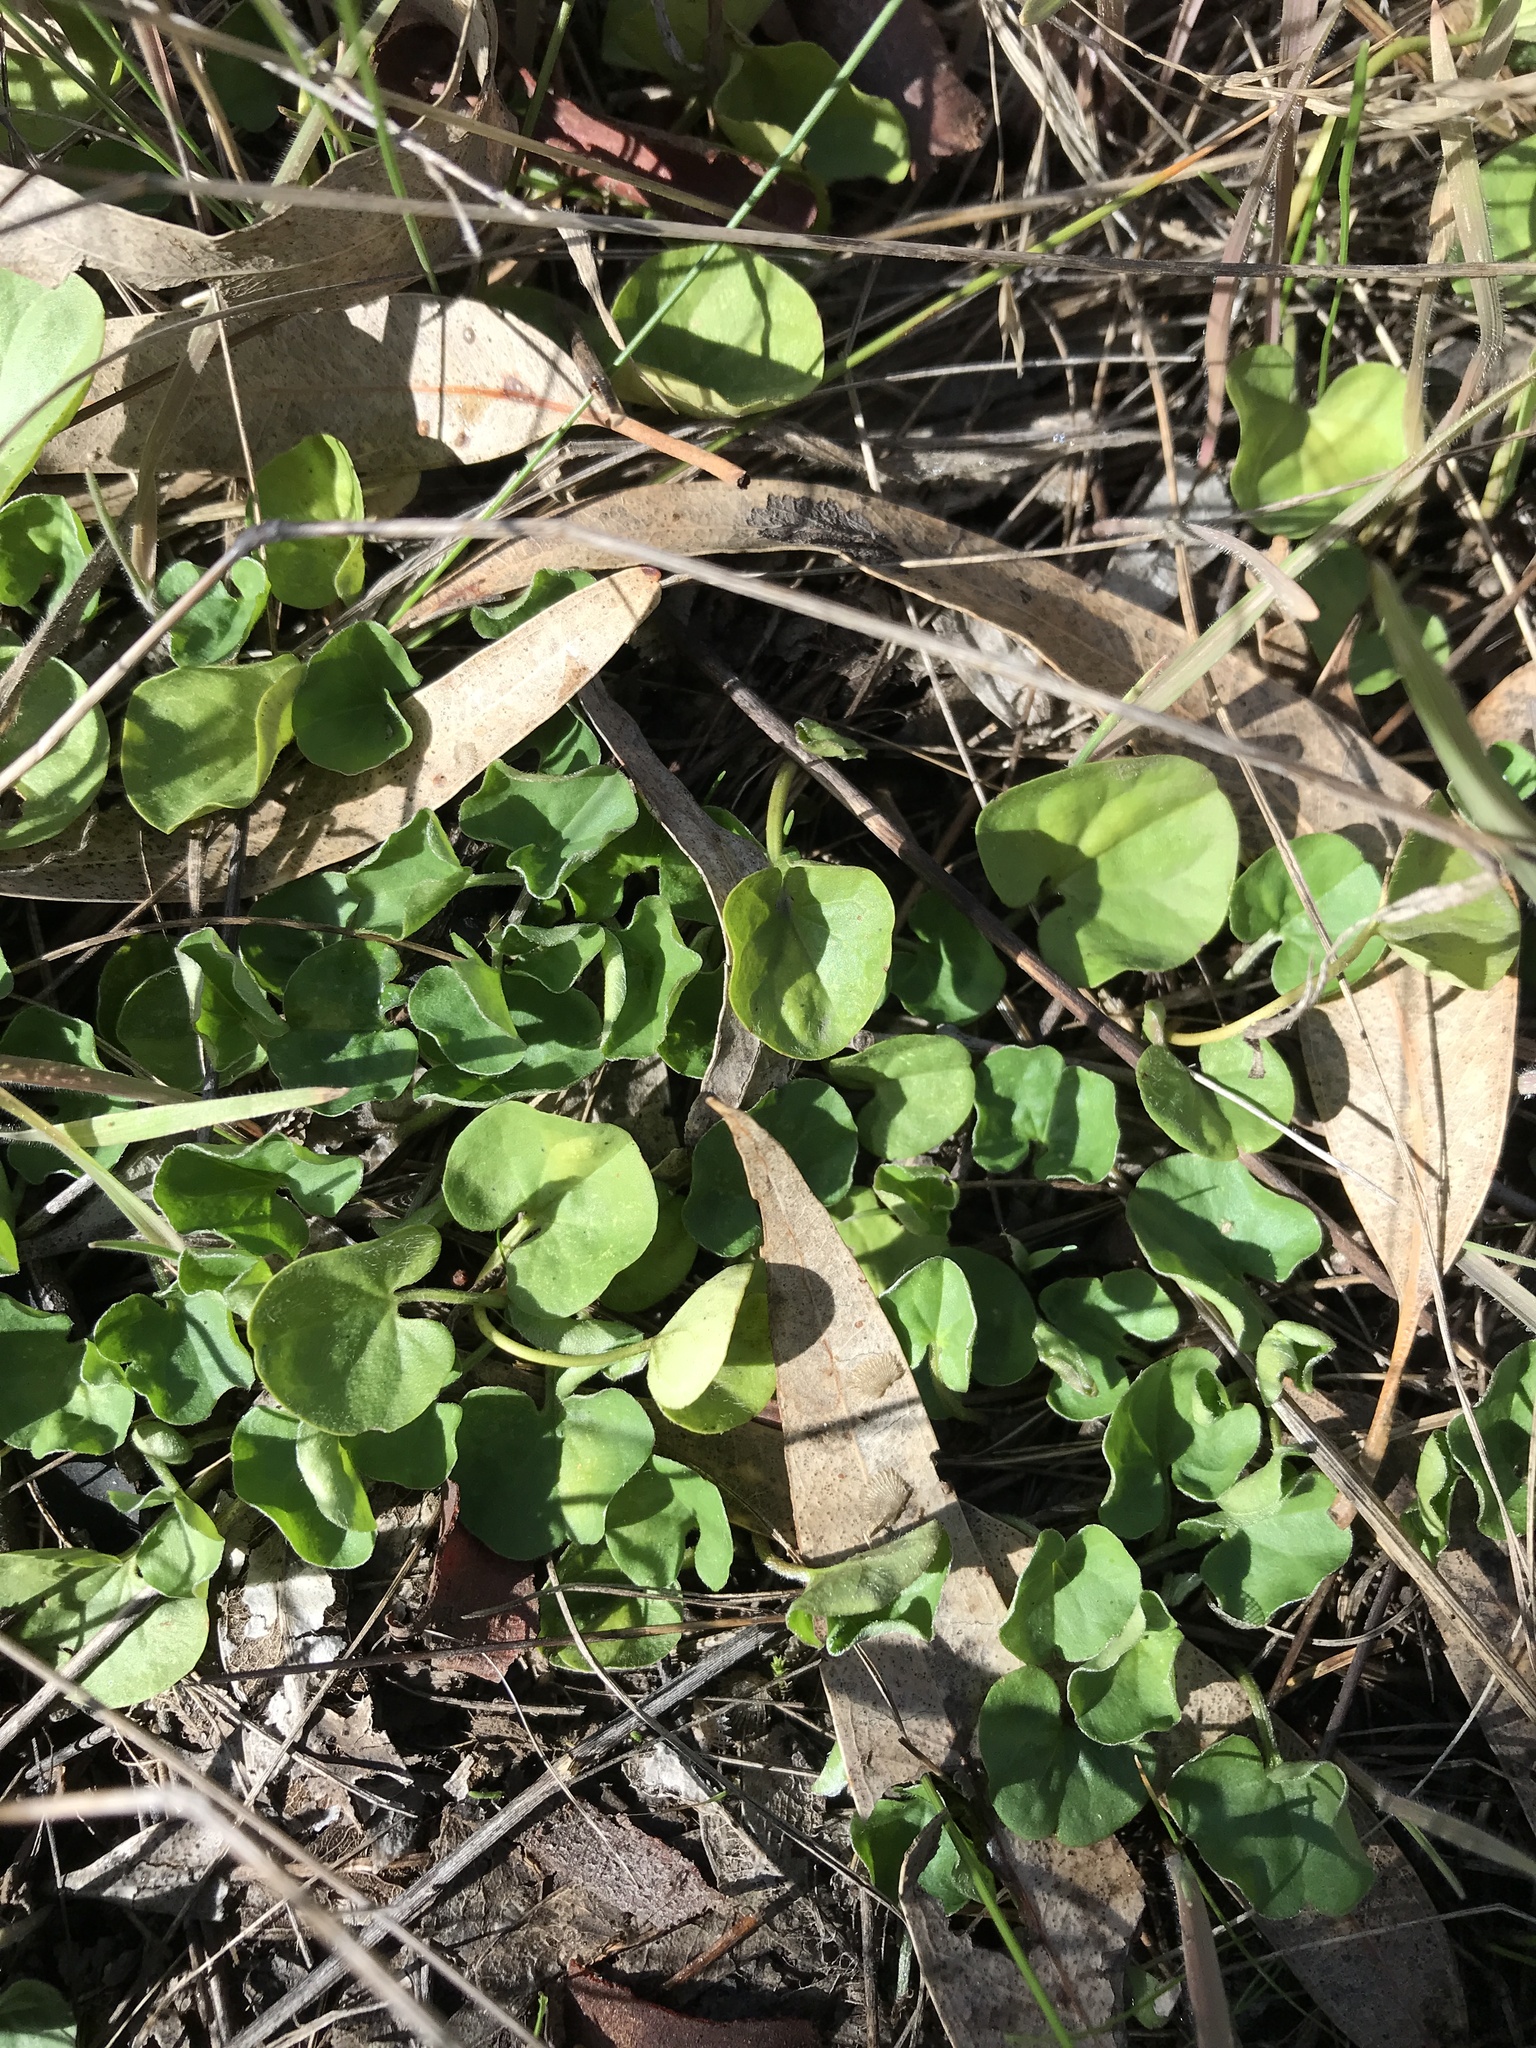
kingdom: Plantae
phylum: Tracheophyta
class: Magnoliopsida
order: Solanales
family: Convolvulaceae
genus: Dichondra
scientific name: Dichondra repens
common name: Kidneyweed
